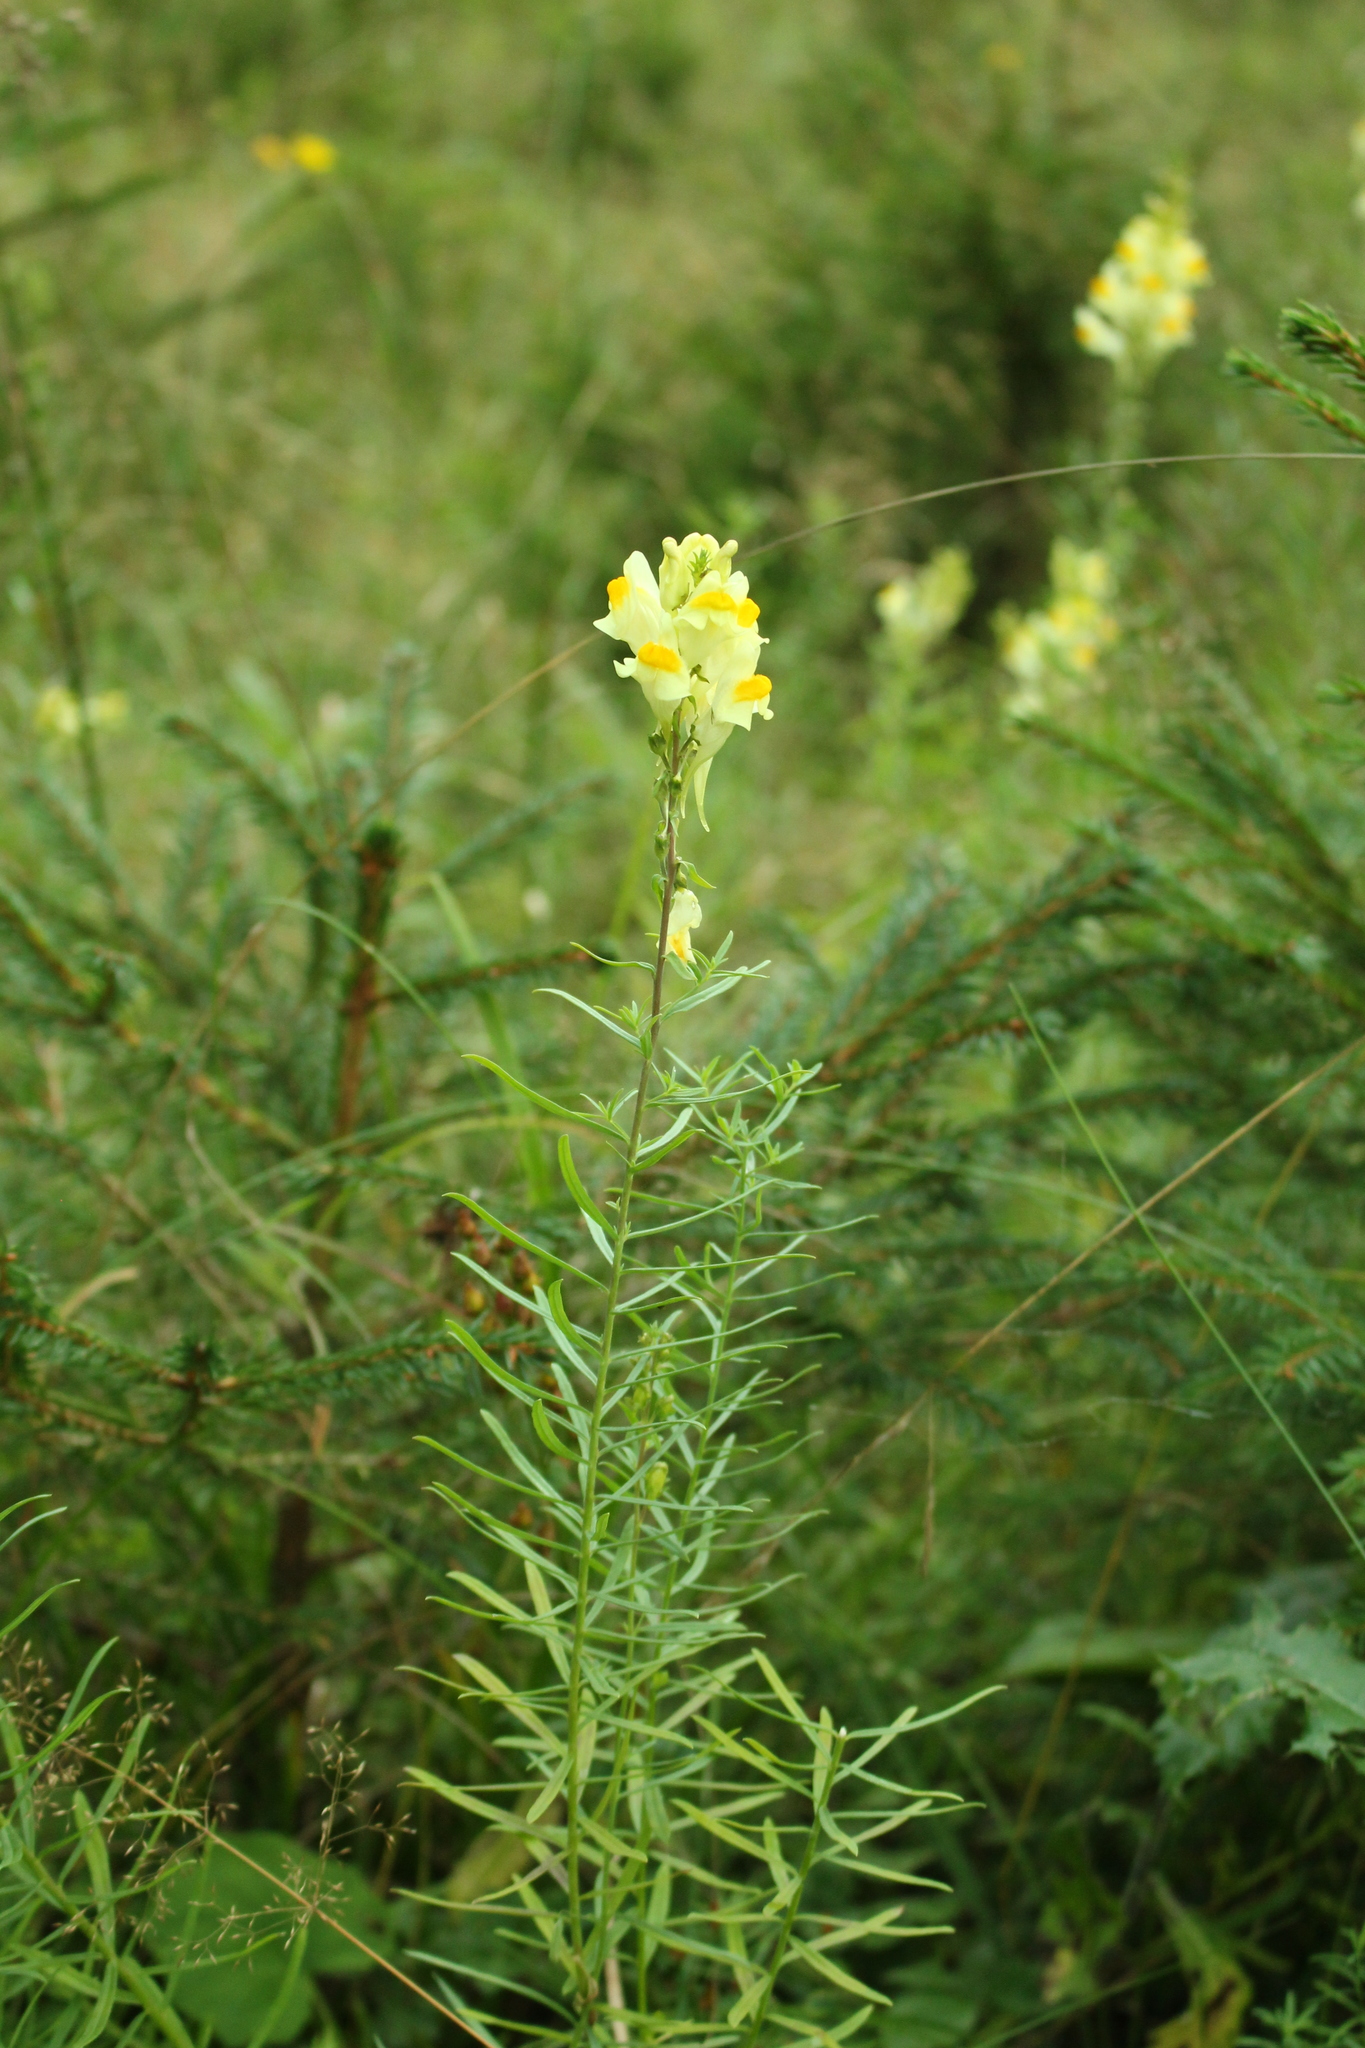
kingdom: Plantae
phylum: Tracheophyta
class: Magnoliopsida
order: Lamiales
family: Plantaginaceae
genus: Linaria
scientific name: Linaria vulgaris
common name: Butter and eggs
